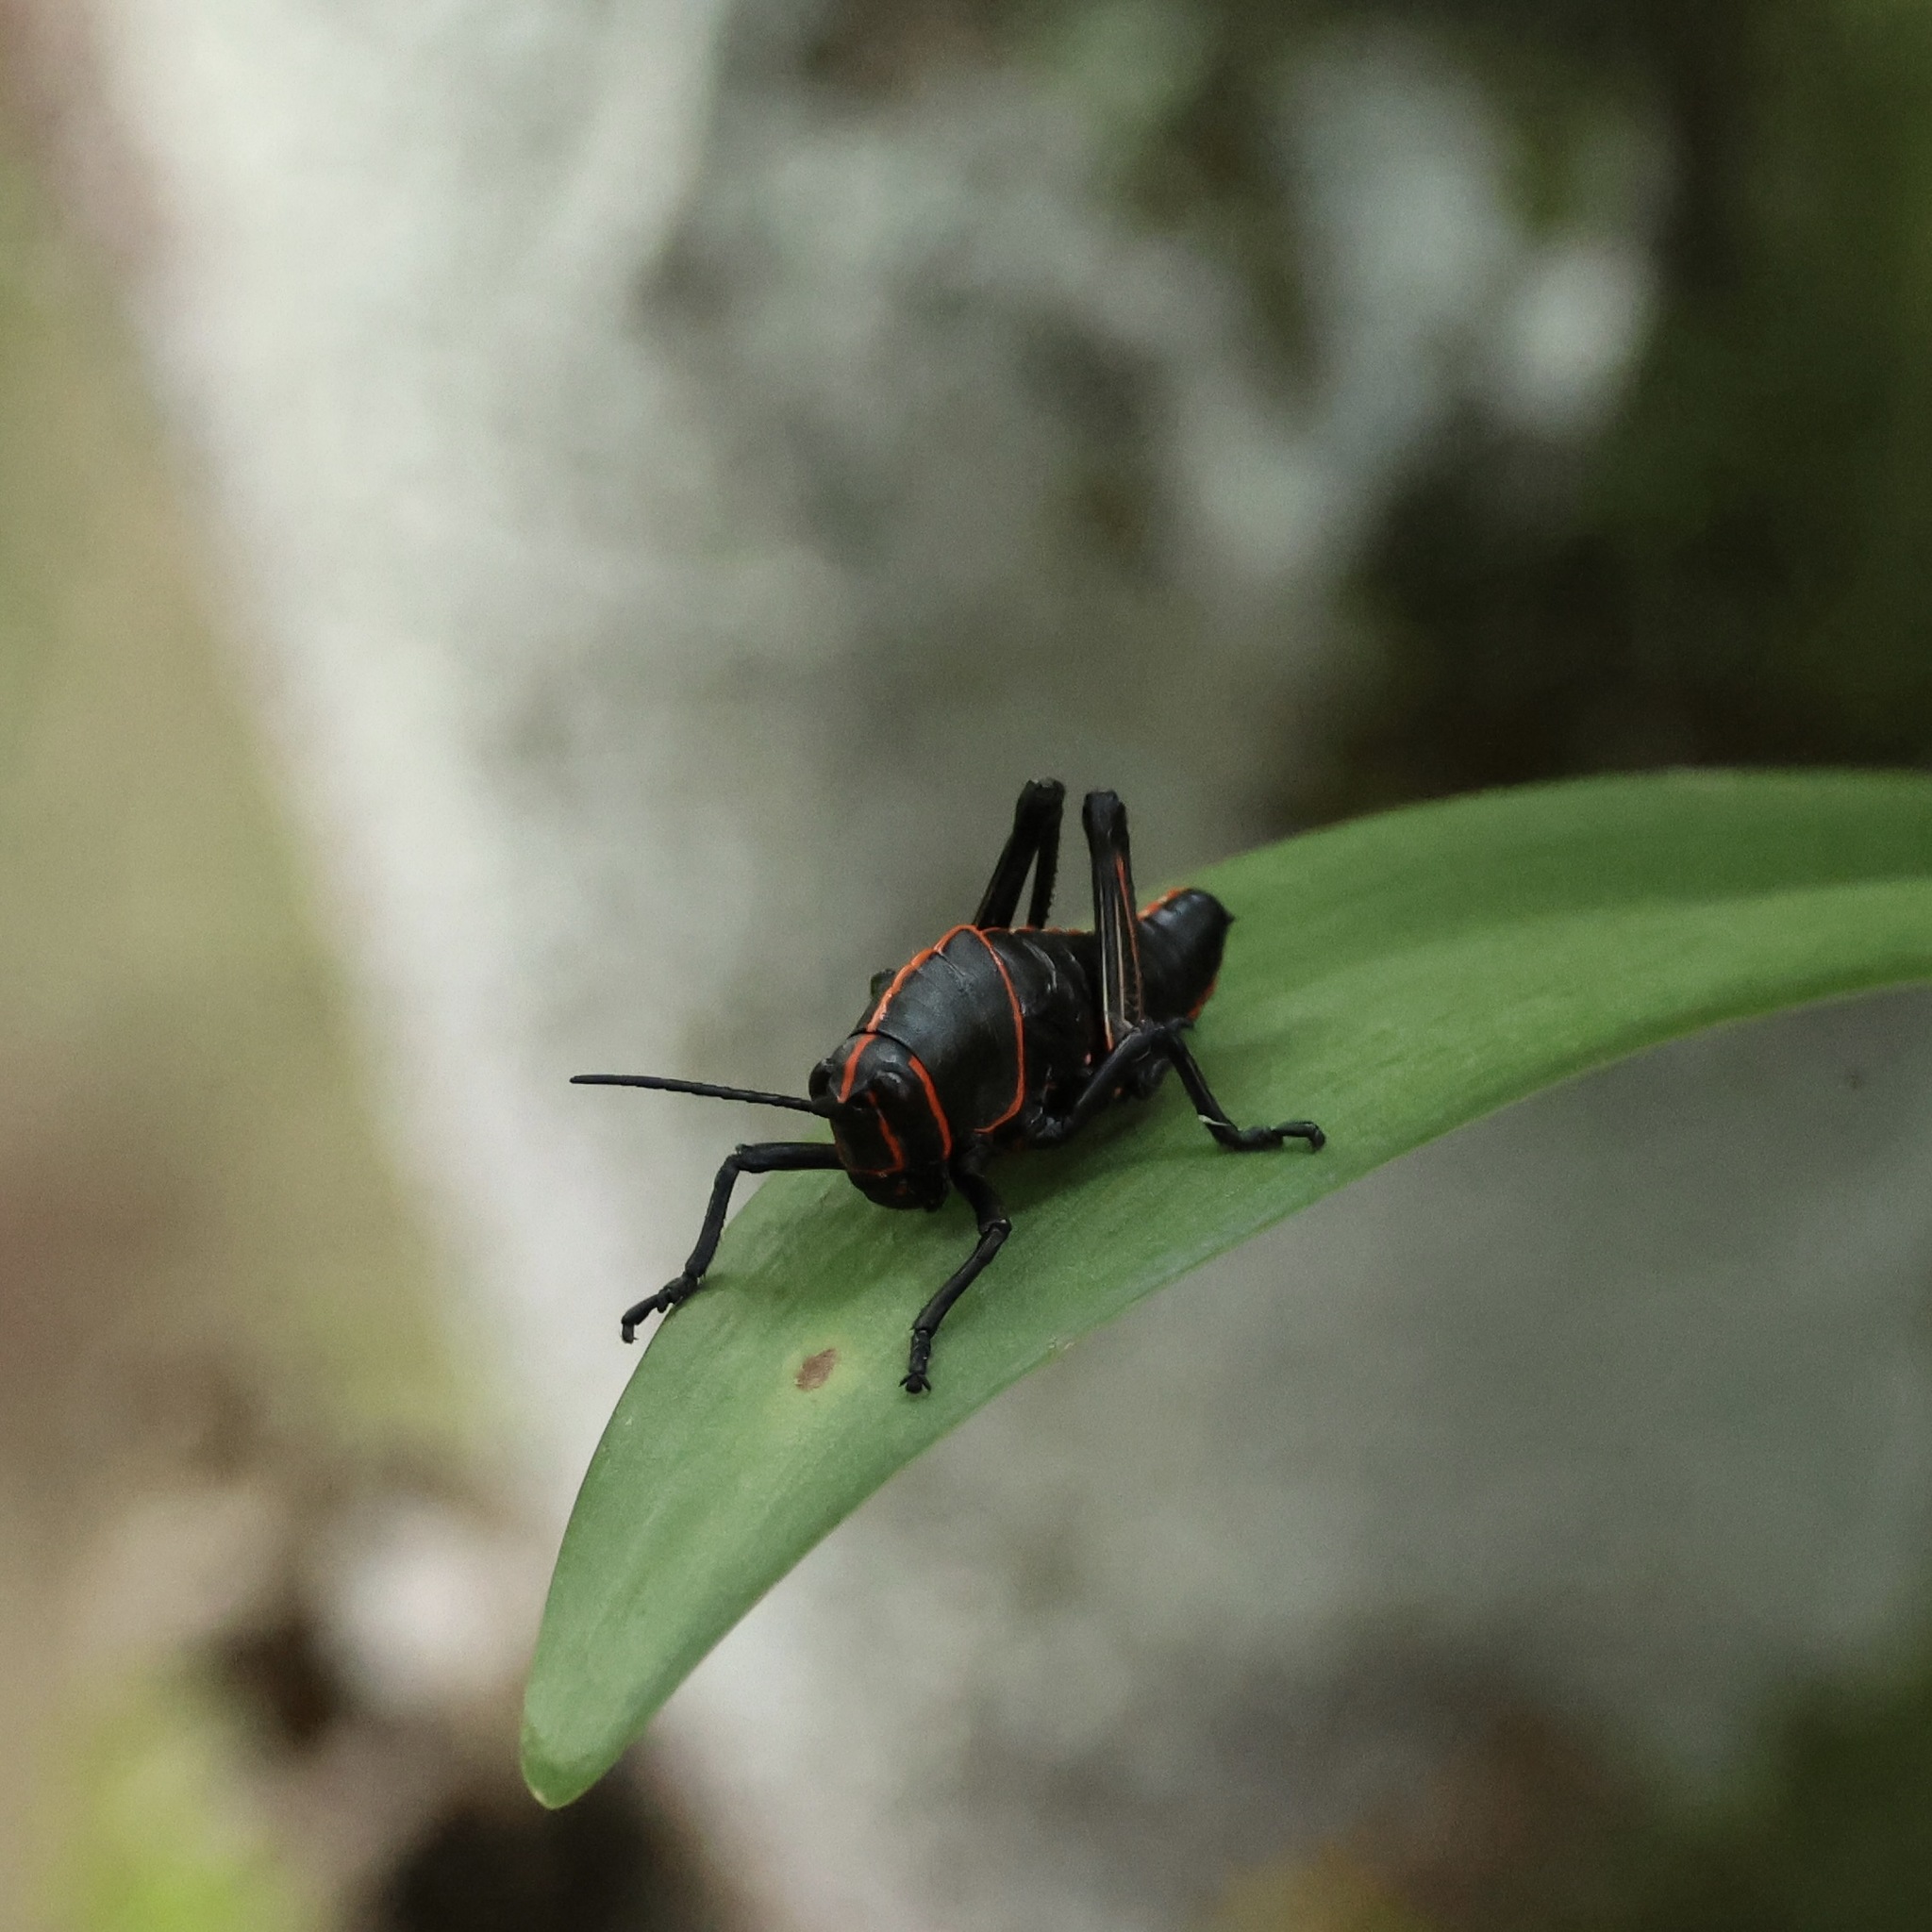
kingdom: Animalia
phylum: Arthropoda
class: Insecta
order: Orthoptera
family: Romaleidae
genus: Romalea
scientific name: Romalea
